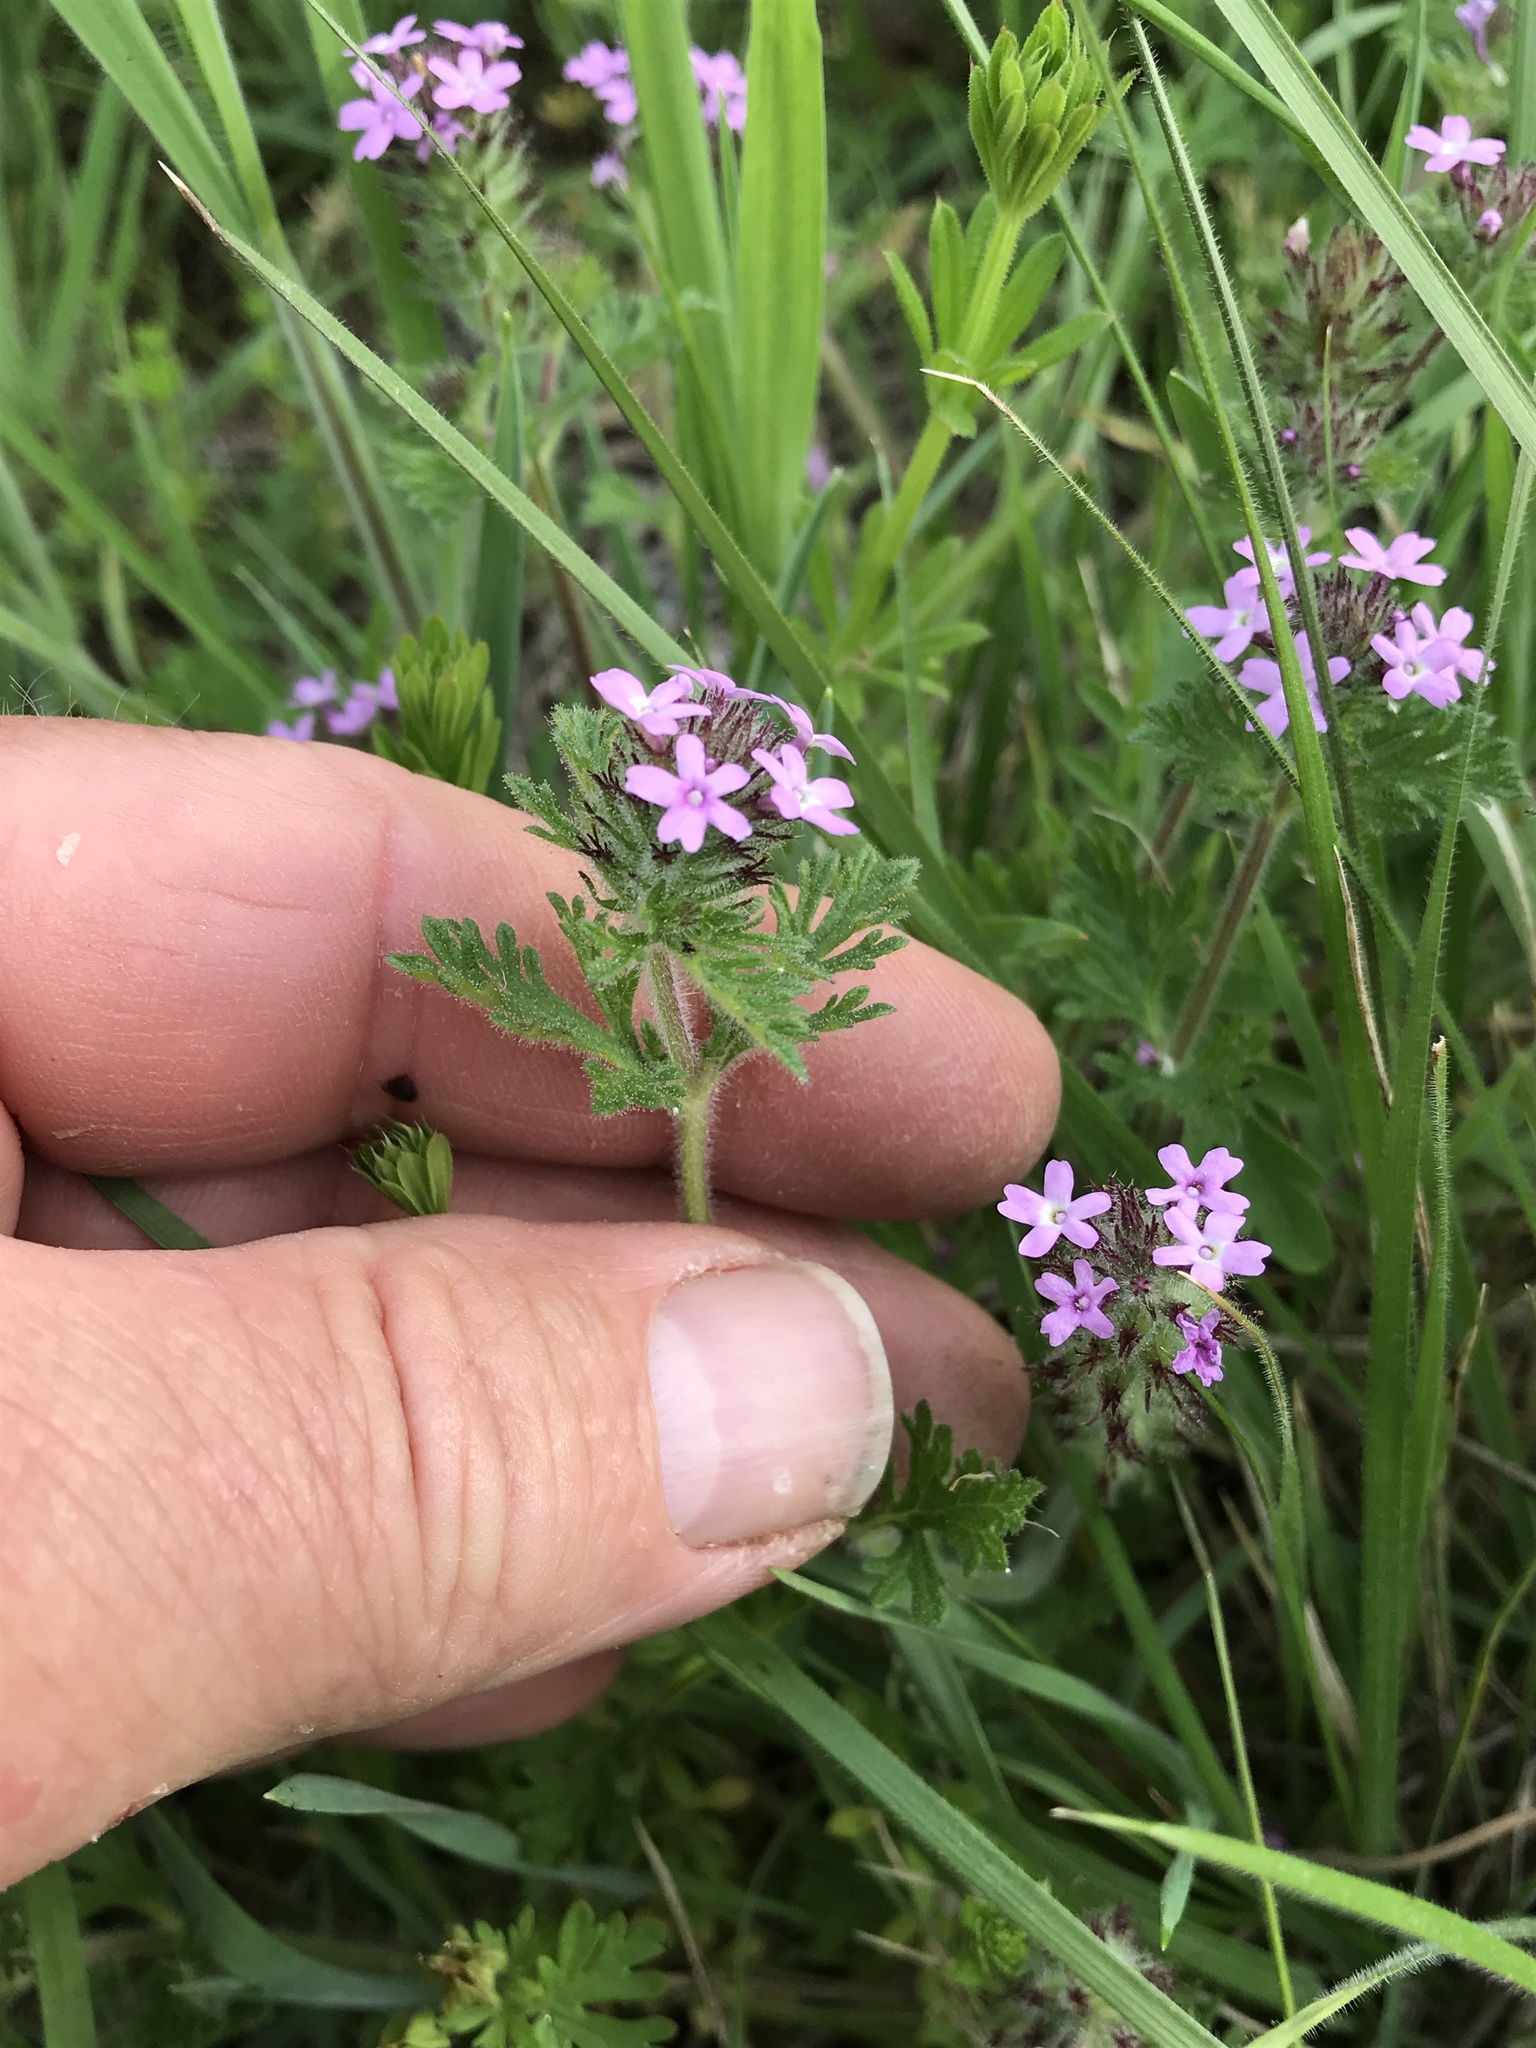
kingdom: Plantae
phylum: Tracheophyta
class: Magnoliopsida
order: Lamiales
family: Verbenaceae
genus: Verbena
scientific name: Verbena pumila
